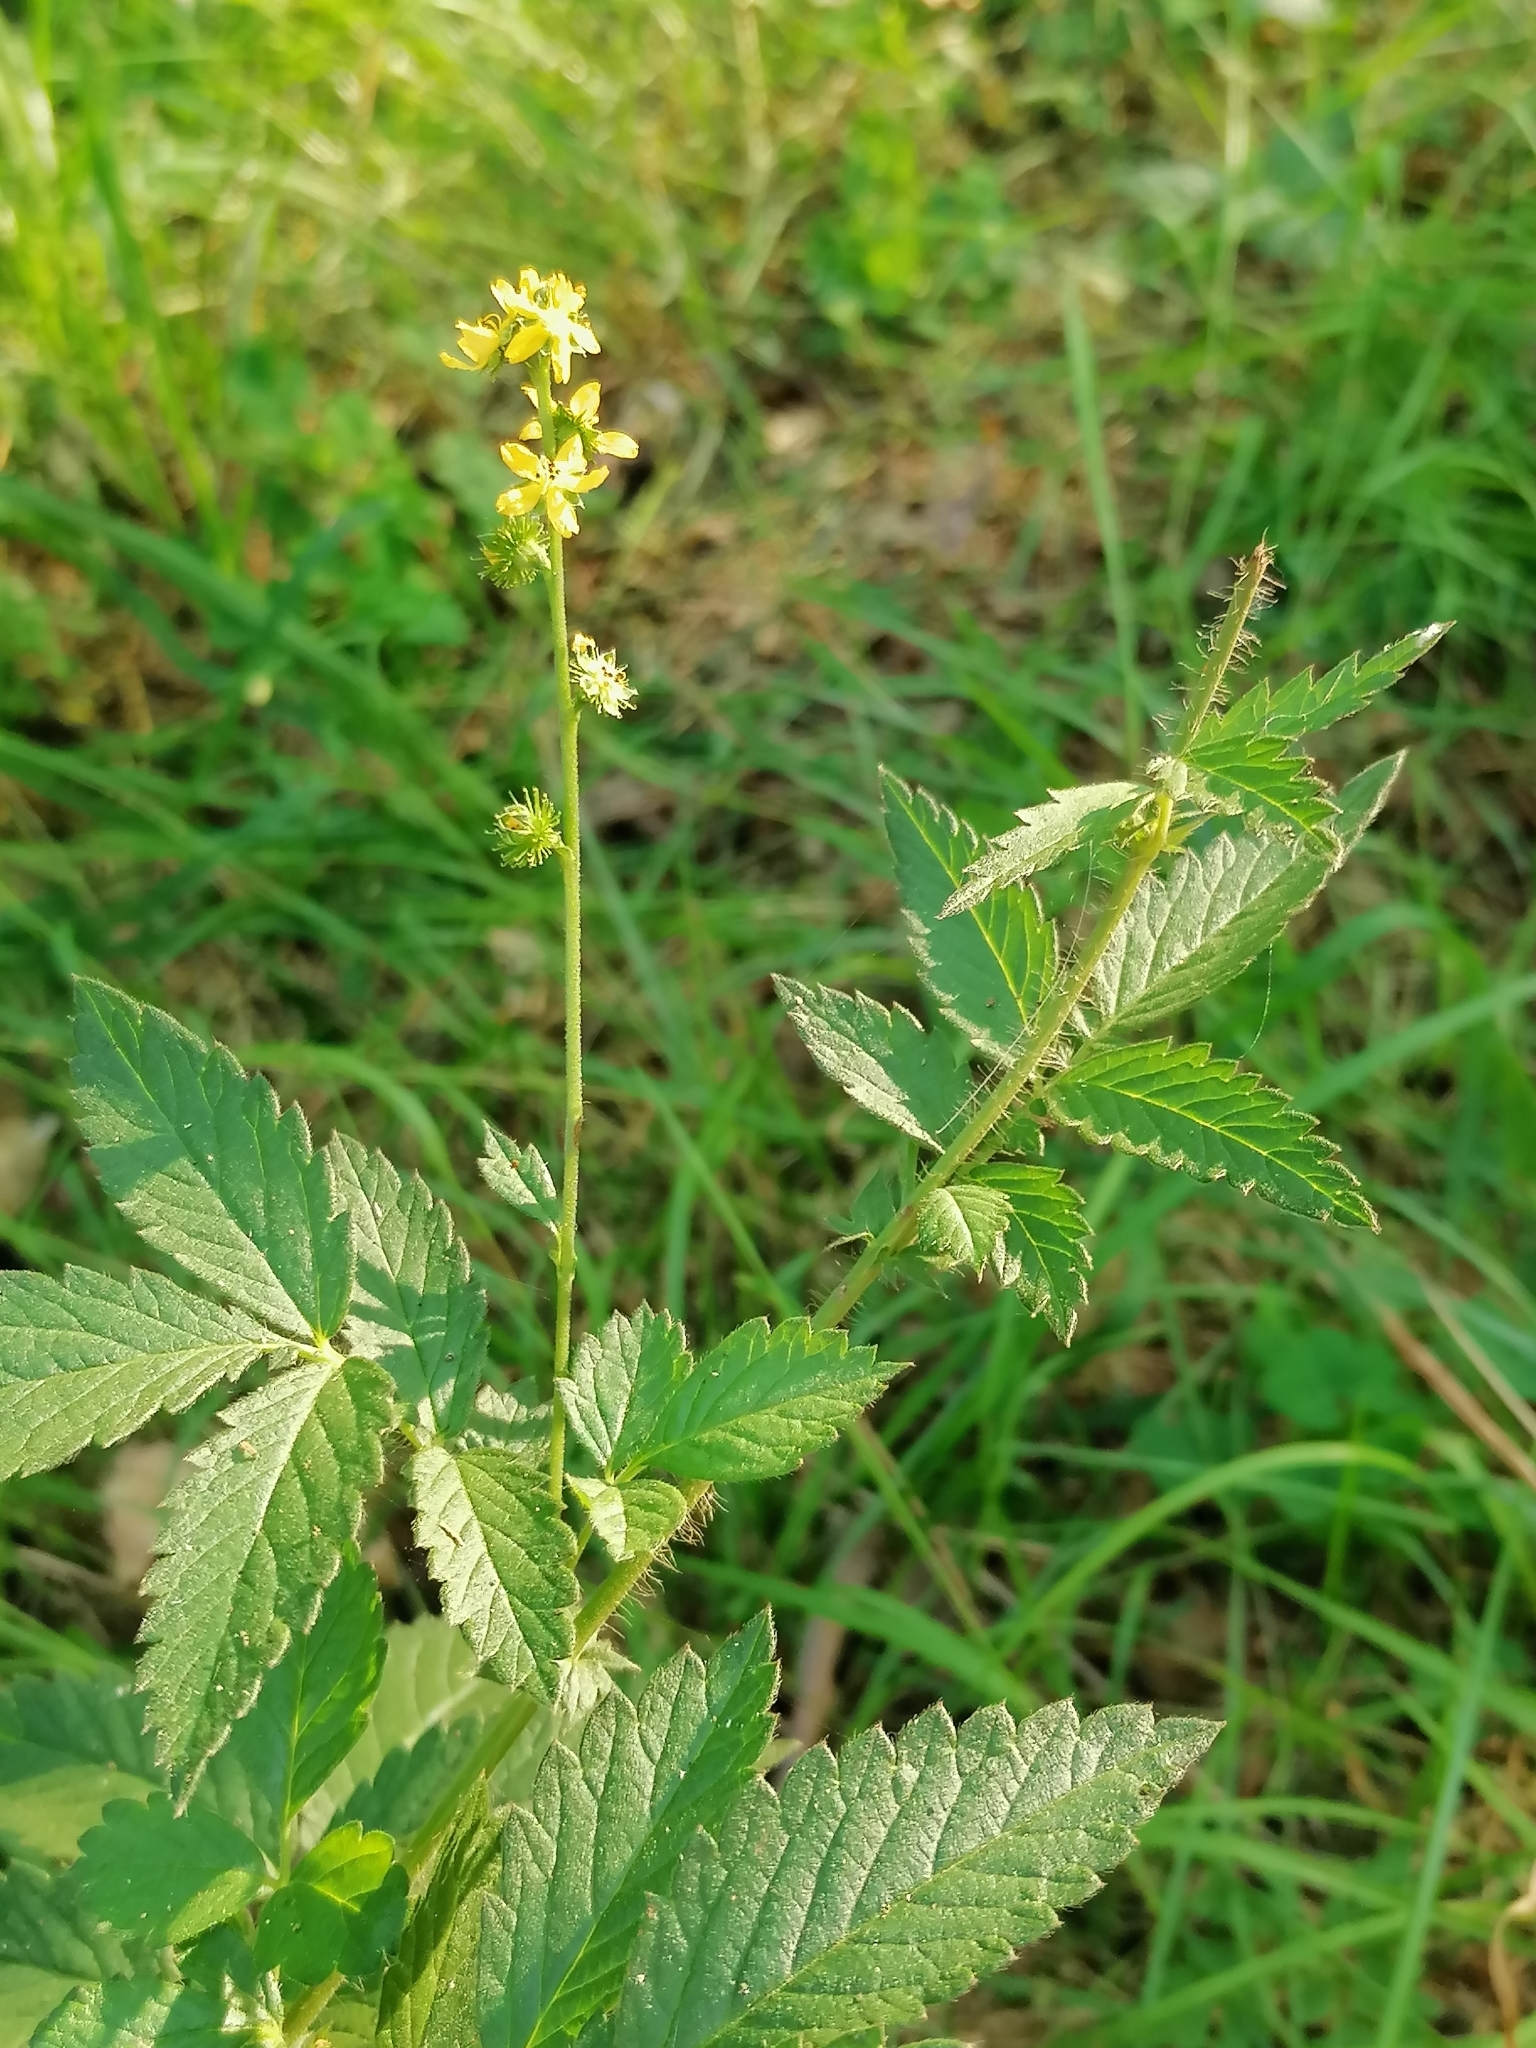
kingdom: Plantae
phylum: Tracheophyta
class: Magnoliopsida
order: Rosales
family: Rosaceae
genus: Agrimonia
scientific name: Agrimonia eupatoria
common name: Agrimony
